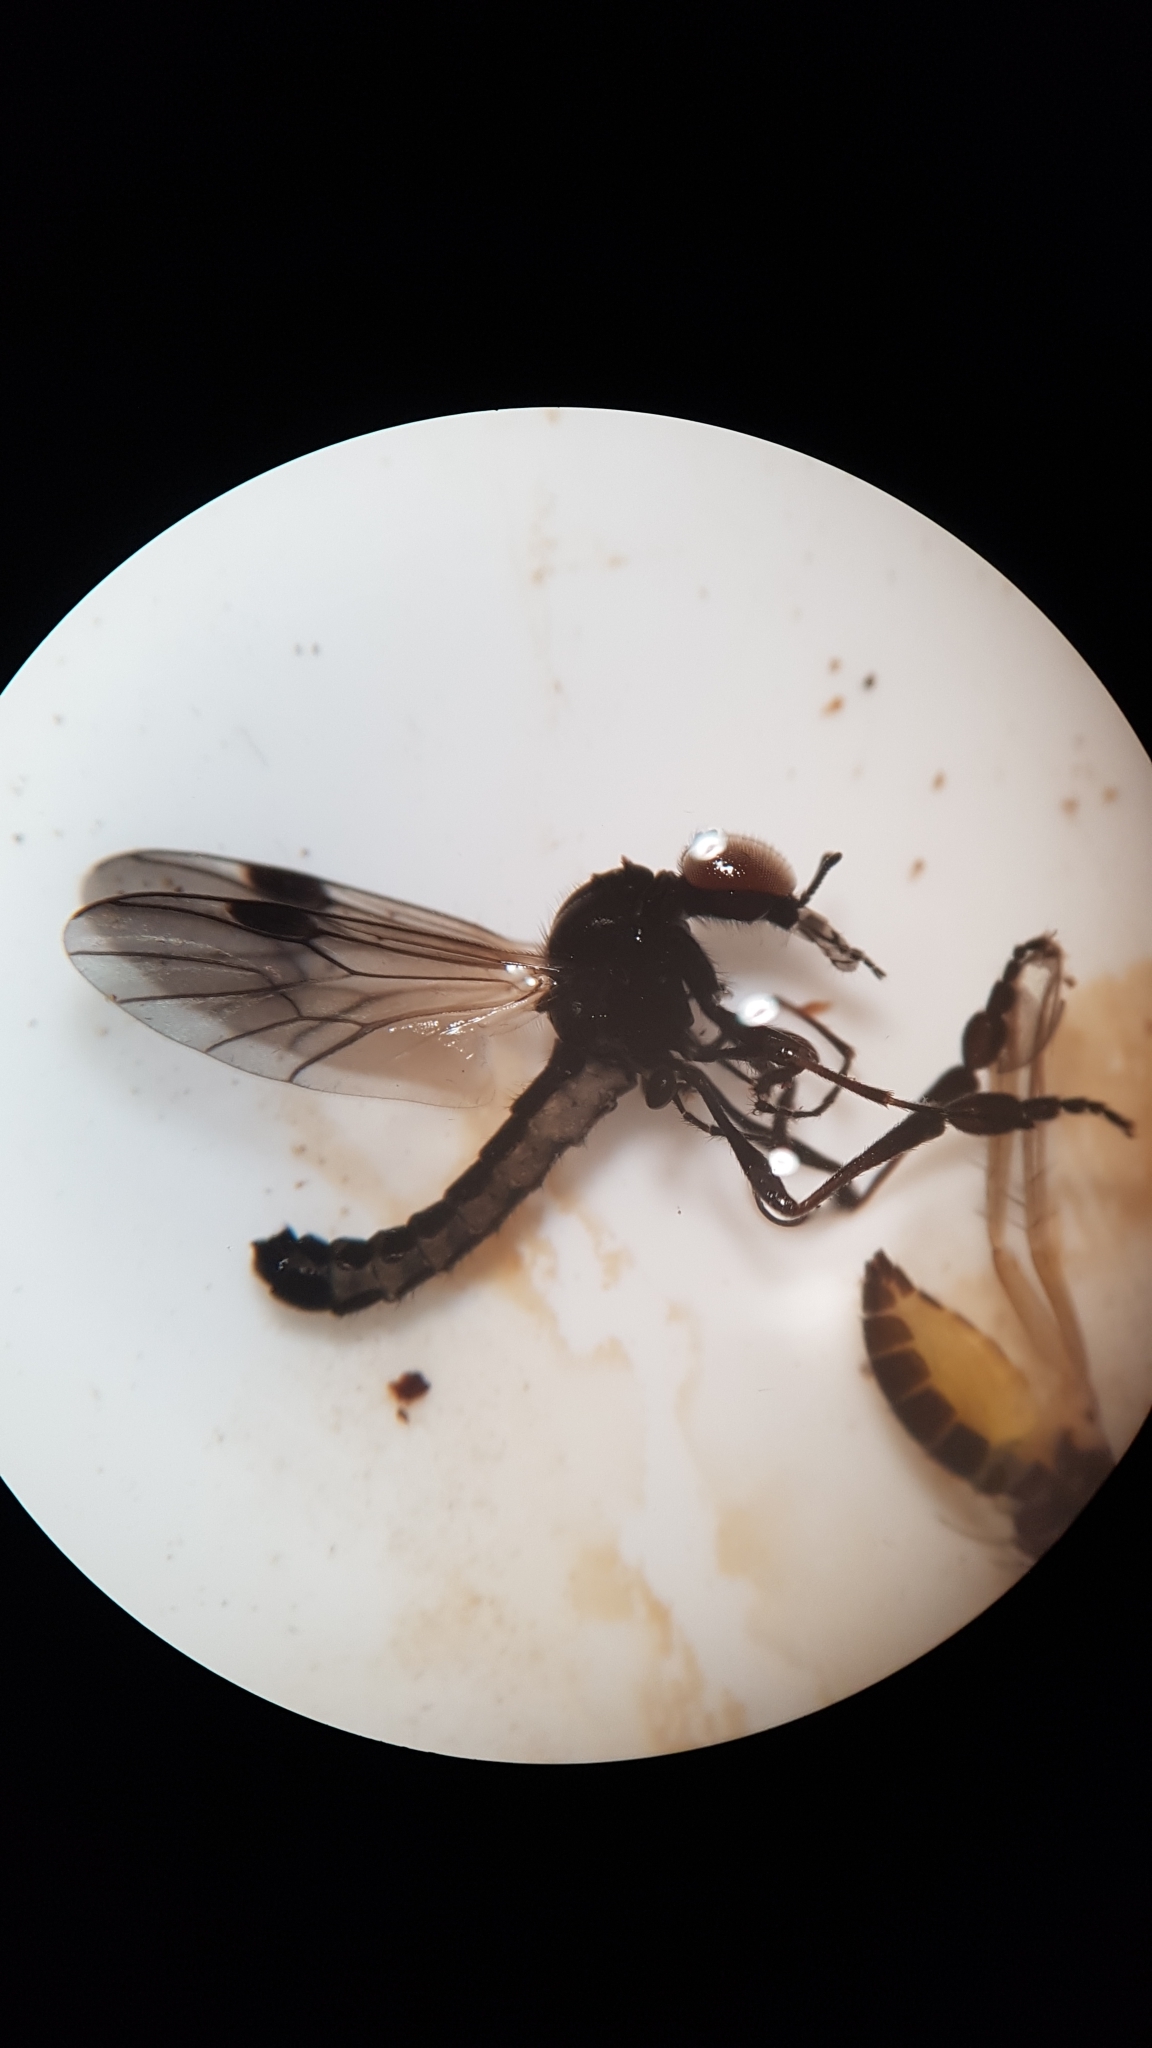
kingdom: Animalia
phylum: Arthropoda
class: Insecta
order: Diptera
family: Bibionidae
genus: Dilophus
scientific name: Dilophus segnis
